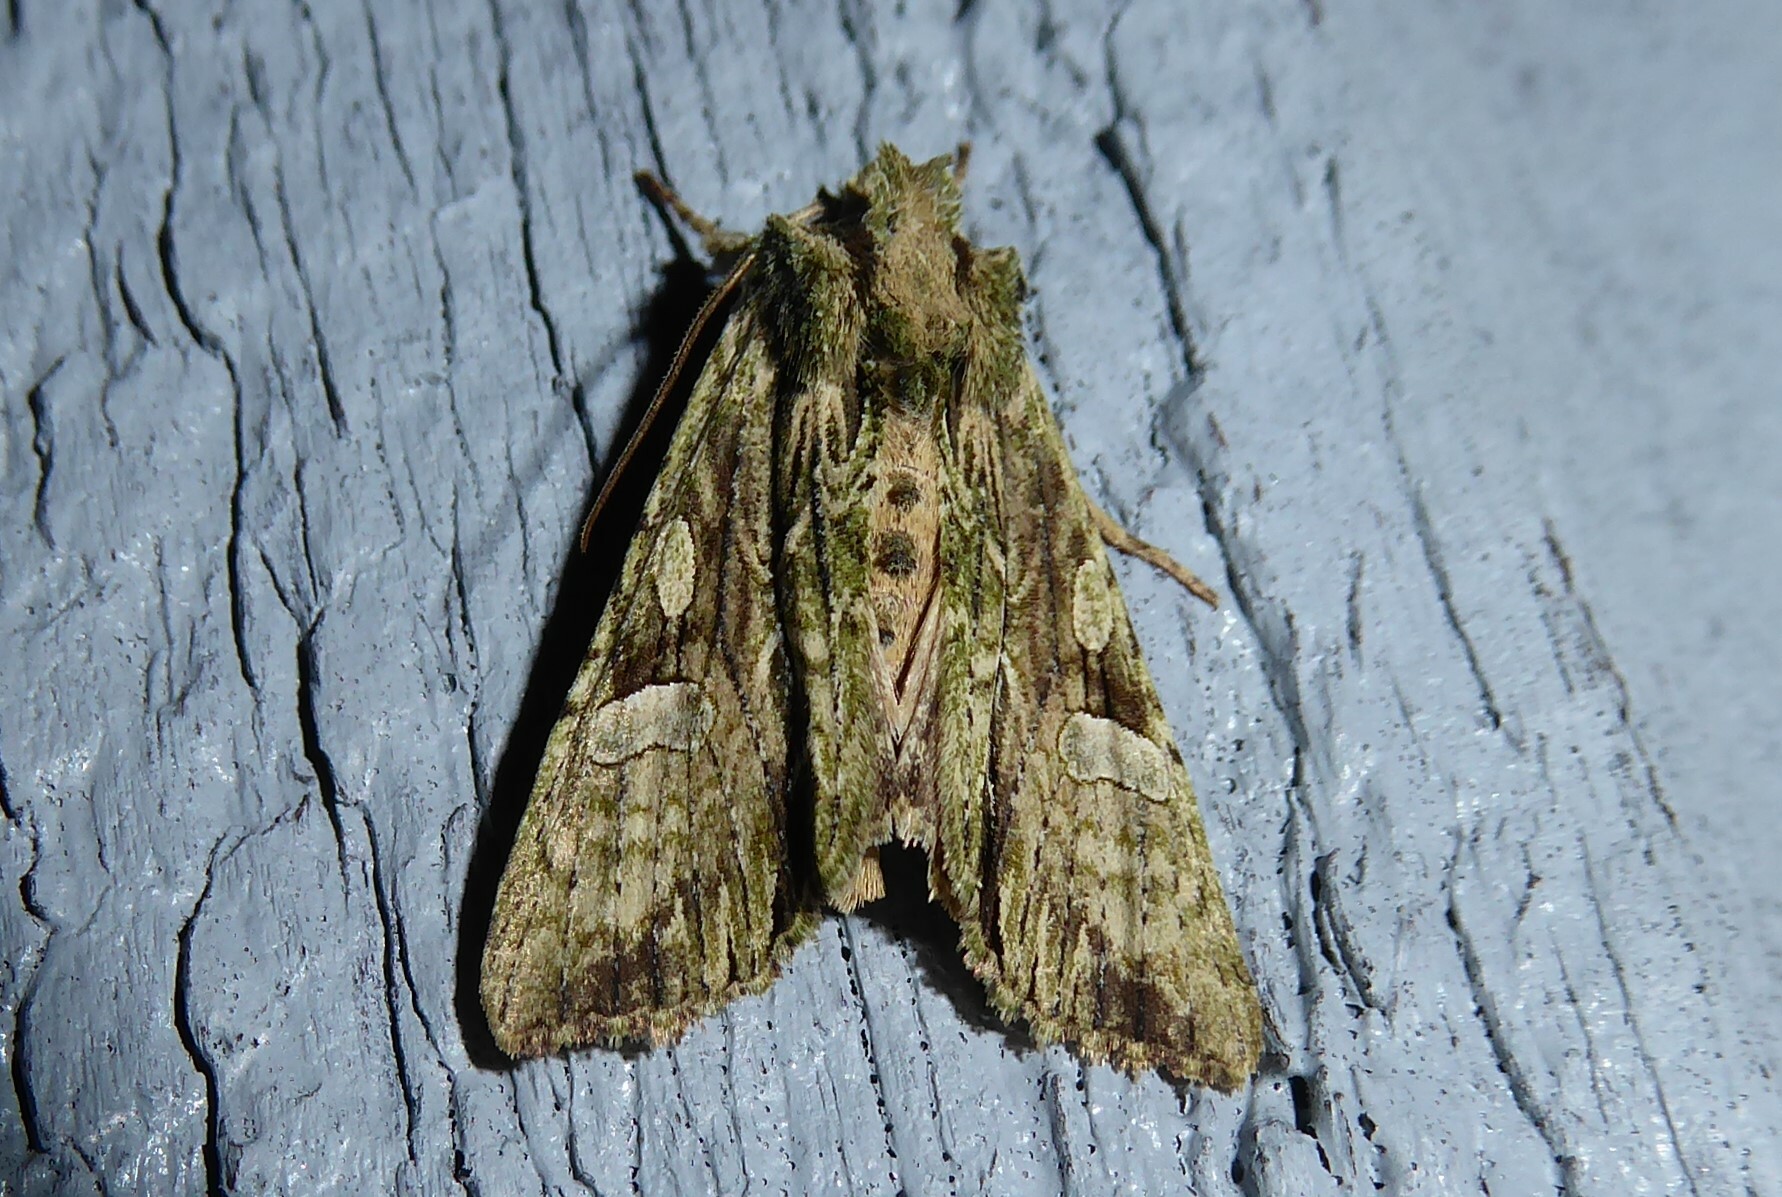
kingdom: Animalia
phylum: Arthropoda
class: Insecta
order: Lepidoptera
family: Noctuidae
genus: Meterana
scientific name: Meterana decorata
